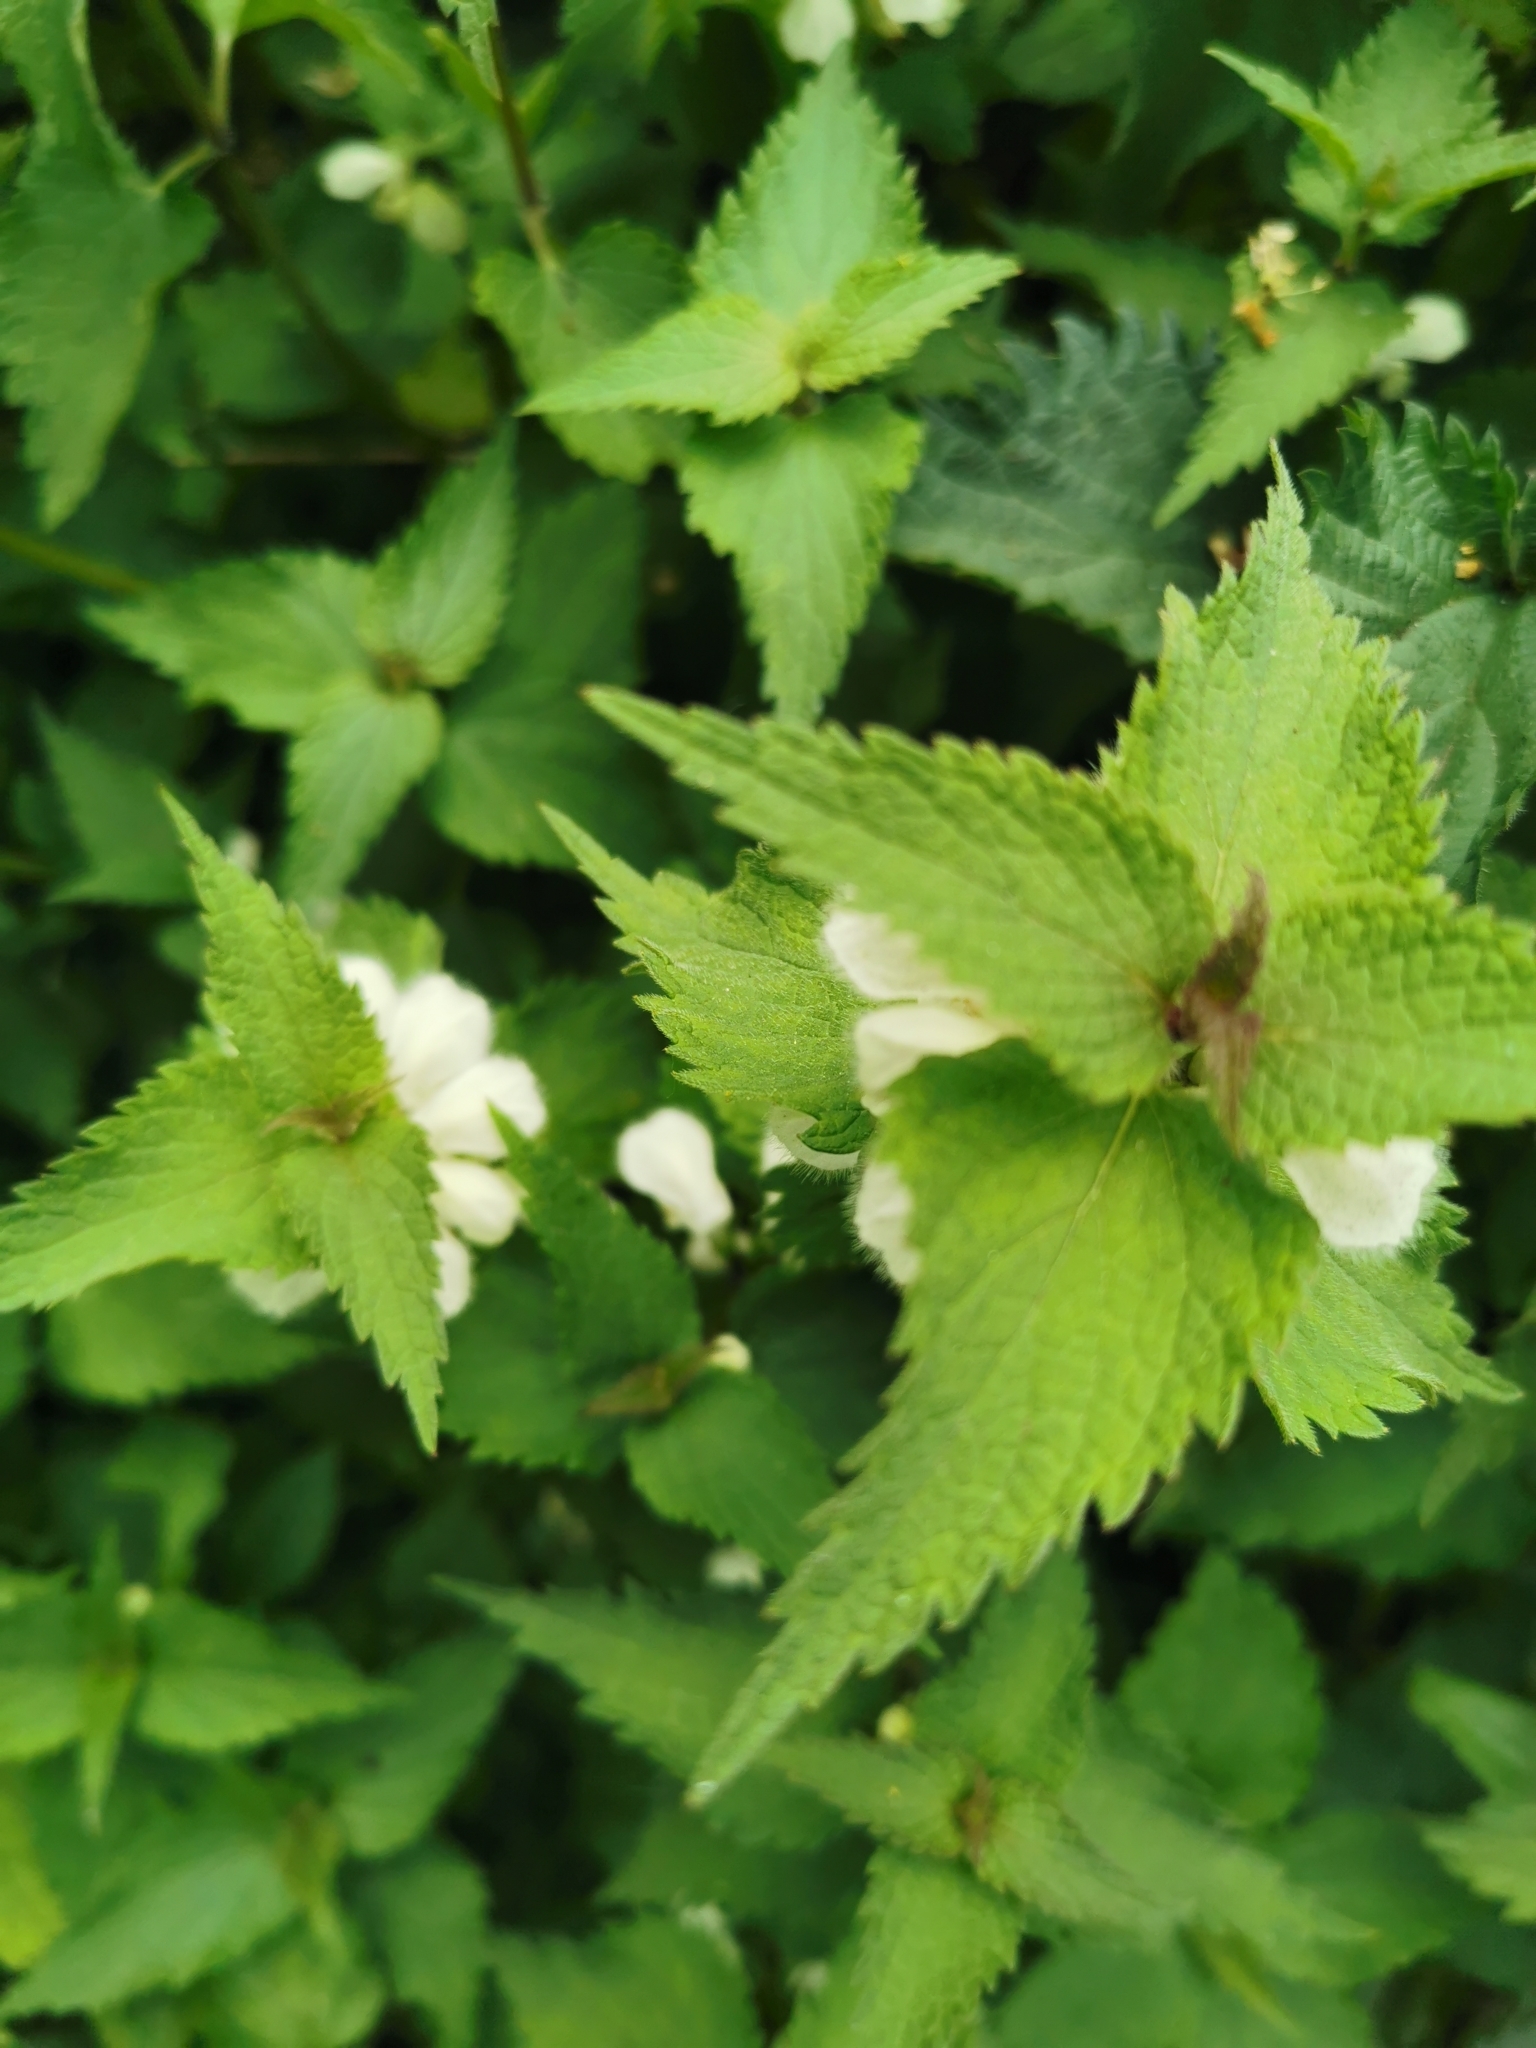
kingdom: Plantae
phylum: Tracheophyta
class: Magnoliopsida
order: Lamiales
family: Lamiaceae
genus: Lamium
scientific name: Lamium album
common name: White dead-nettle
